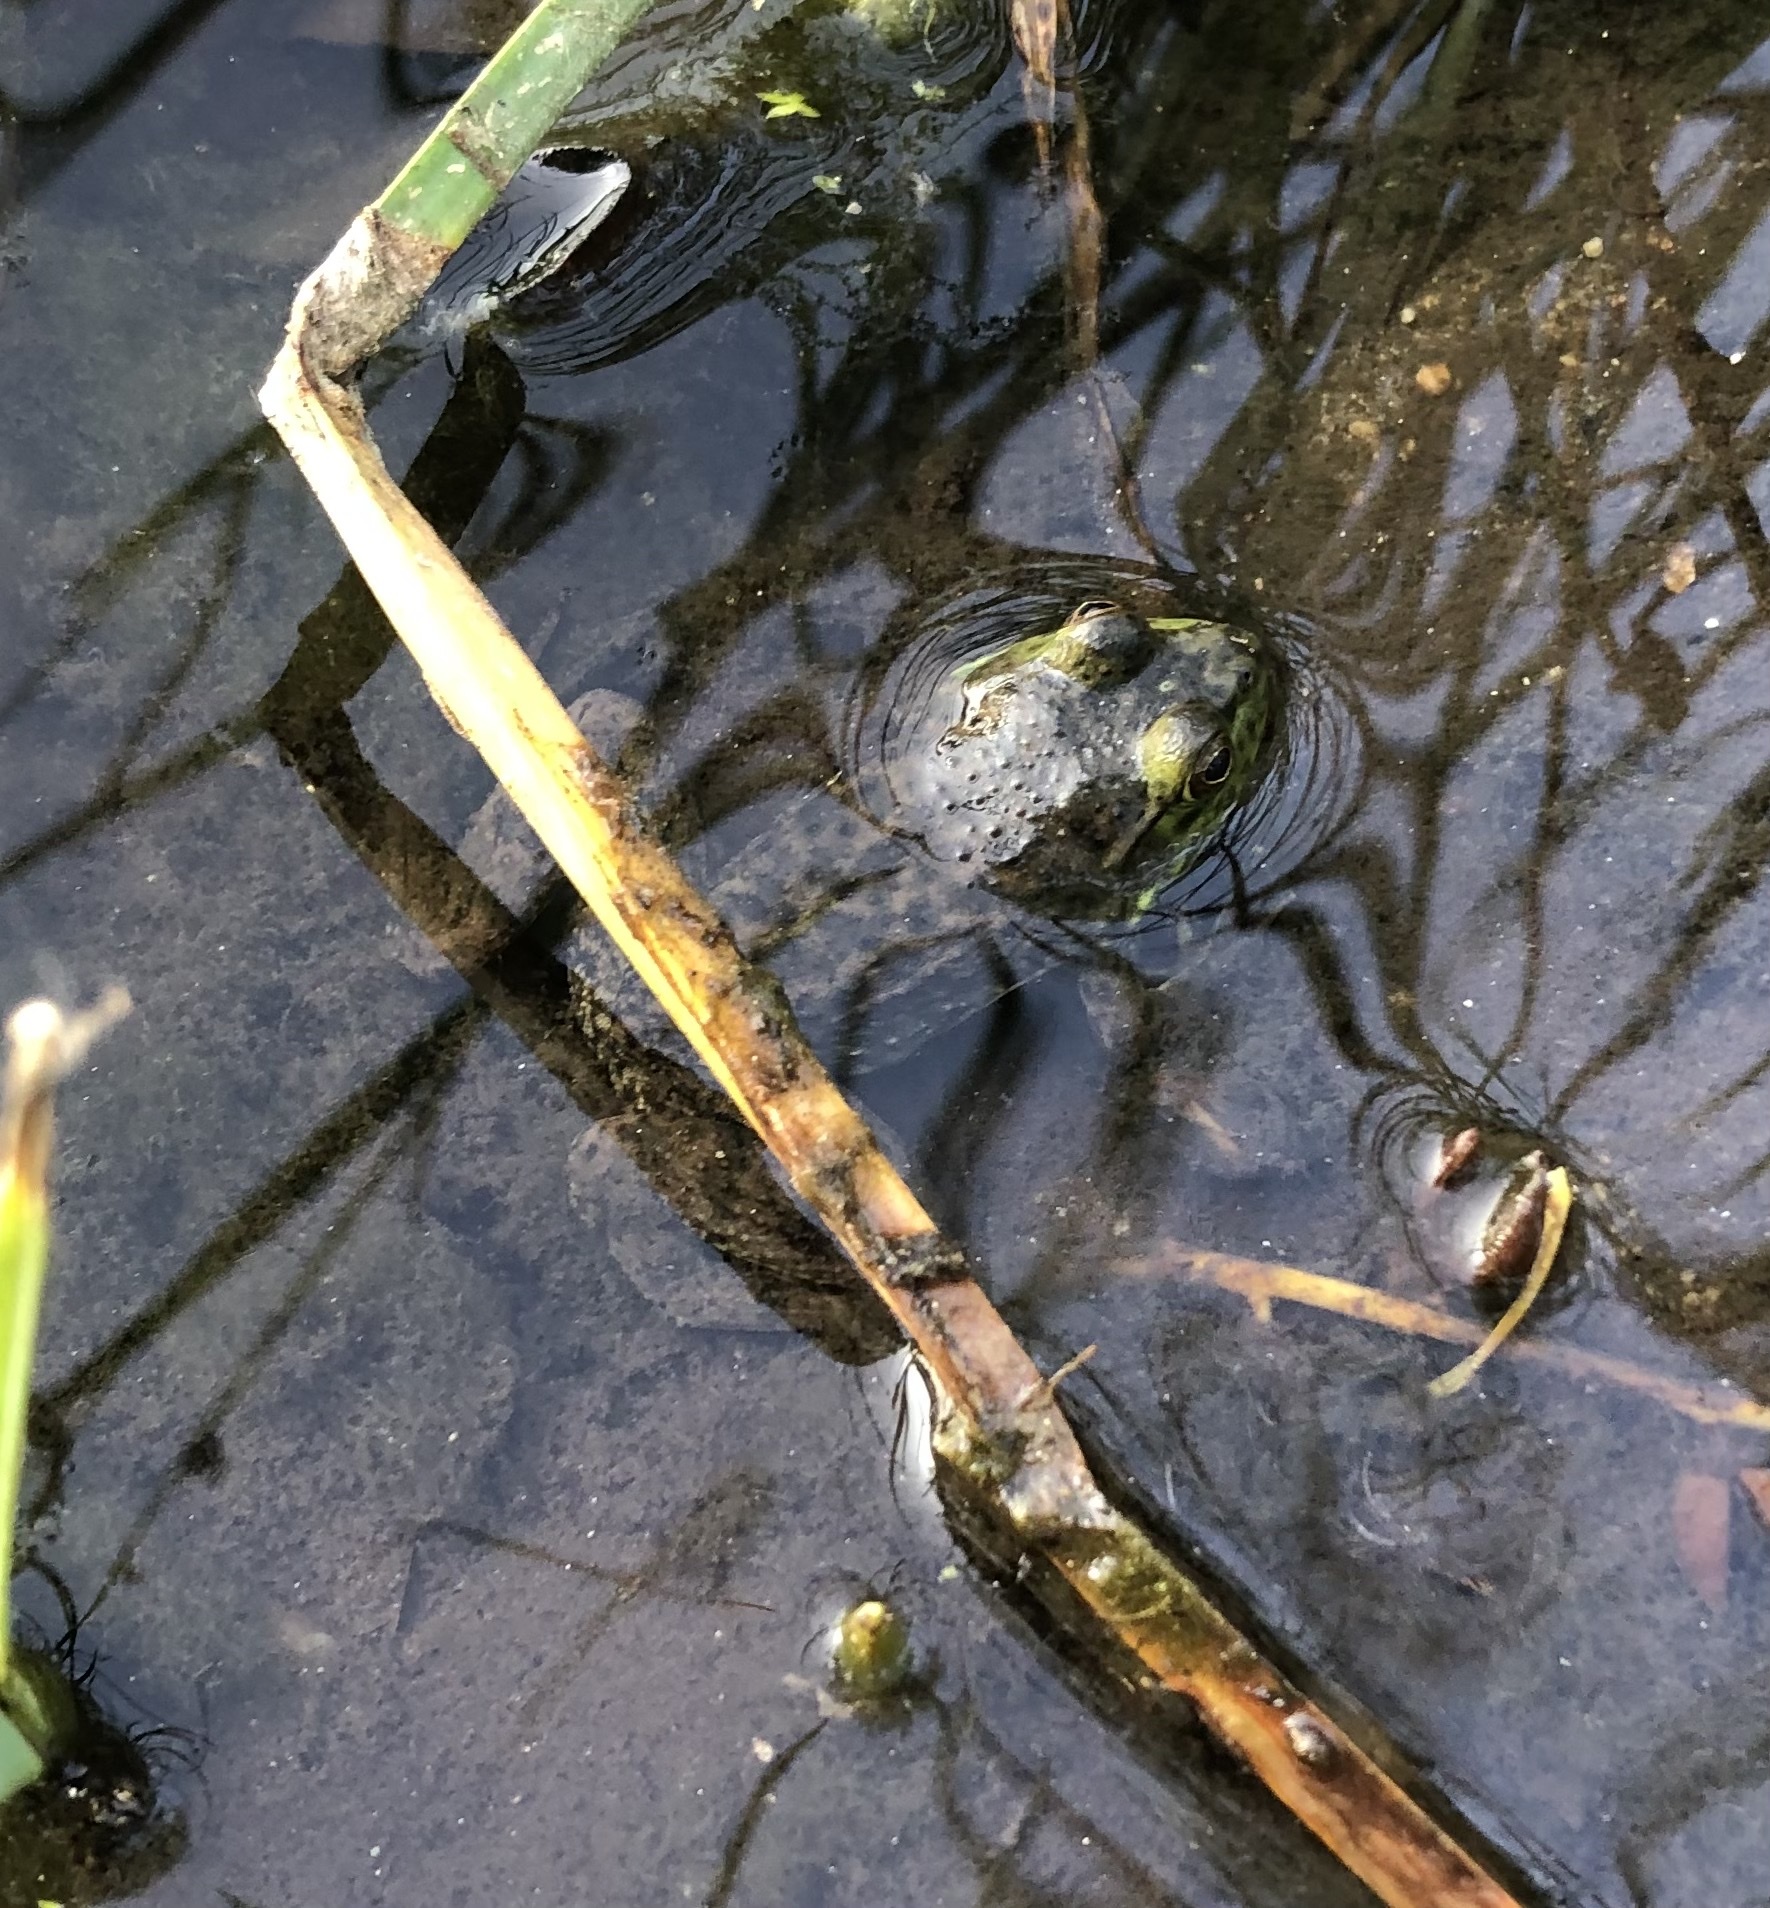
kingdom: Animalia
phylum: Chordata
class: Amphibia
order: Anura
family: Ranidae
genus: Lithobates
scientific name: Lithobates catesbeianus
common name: American bullfrog
